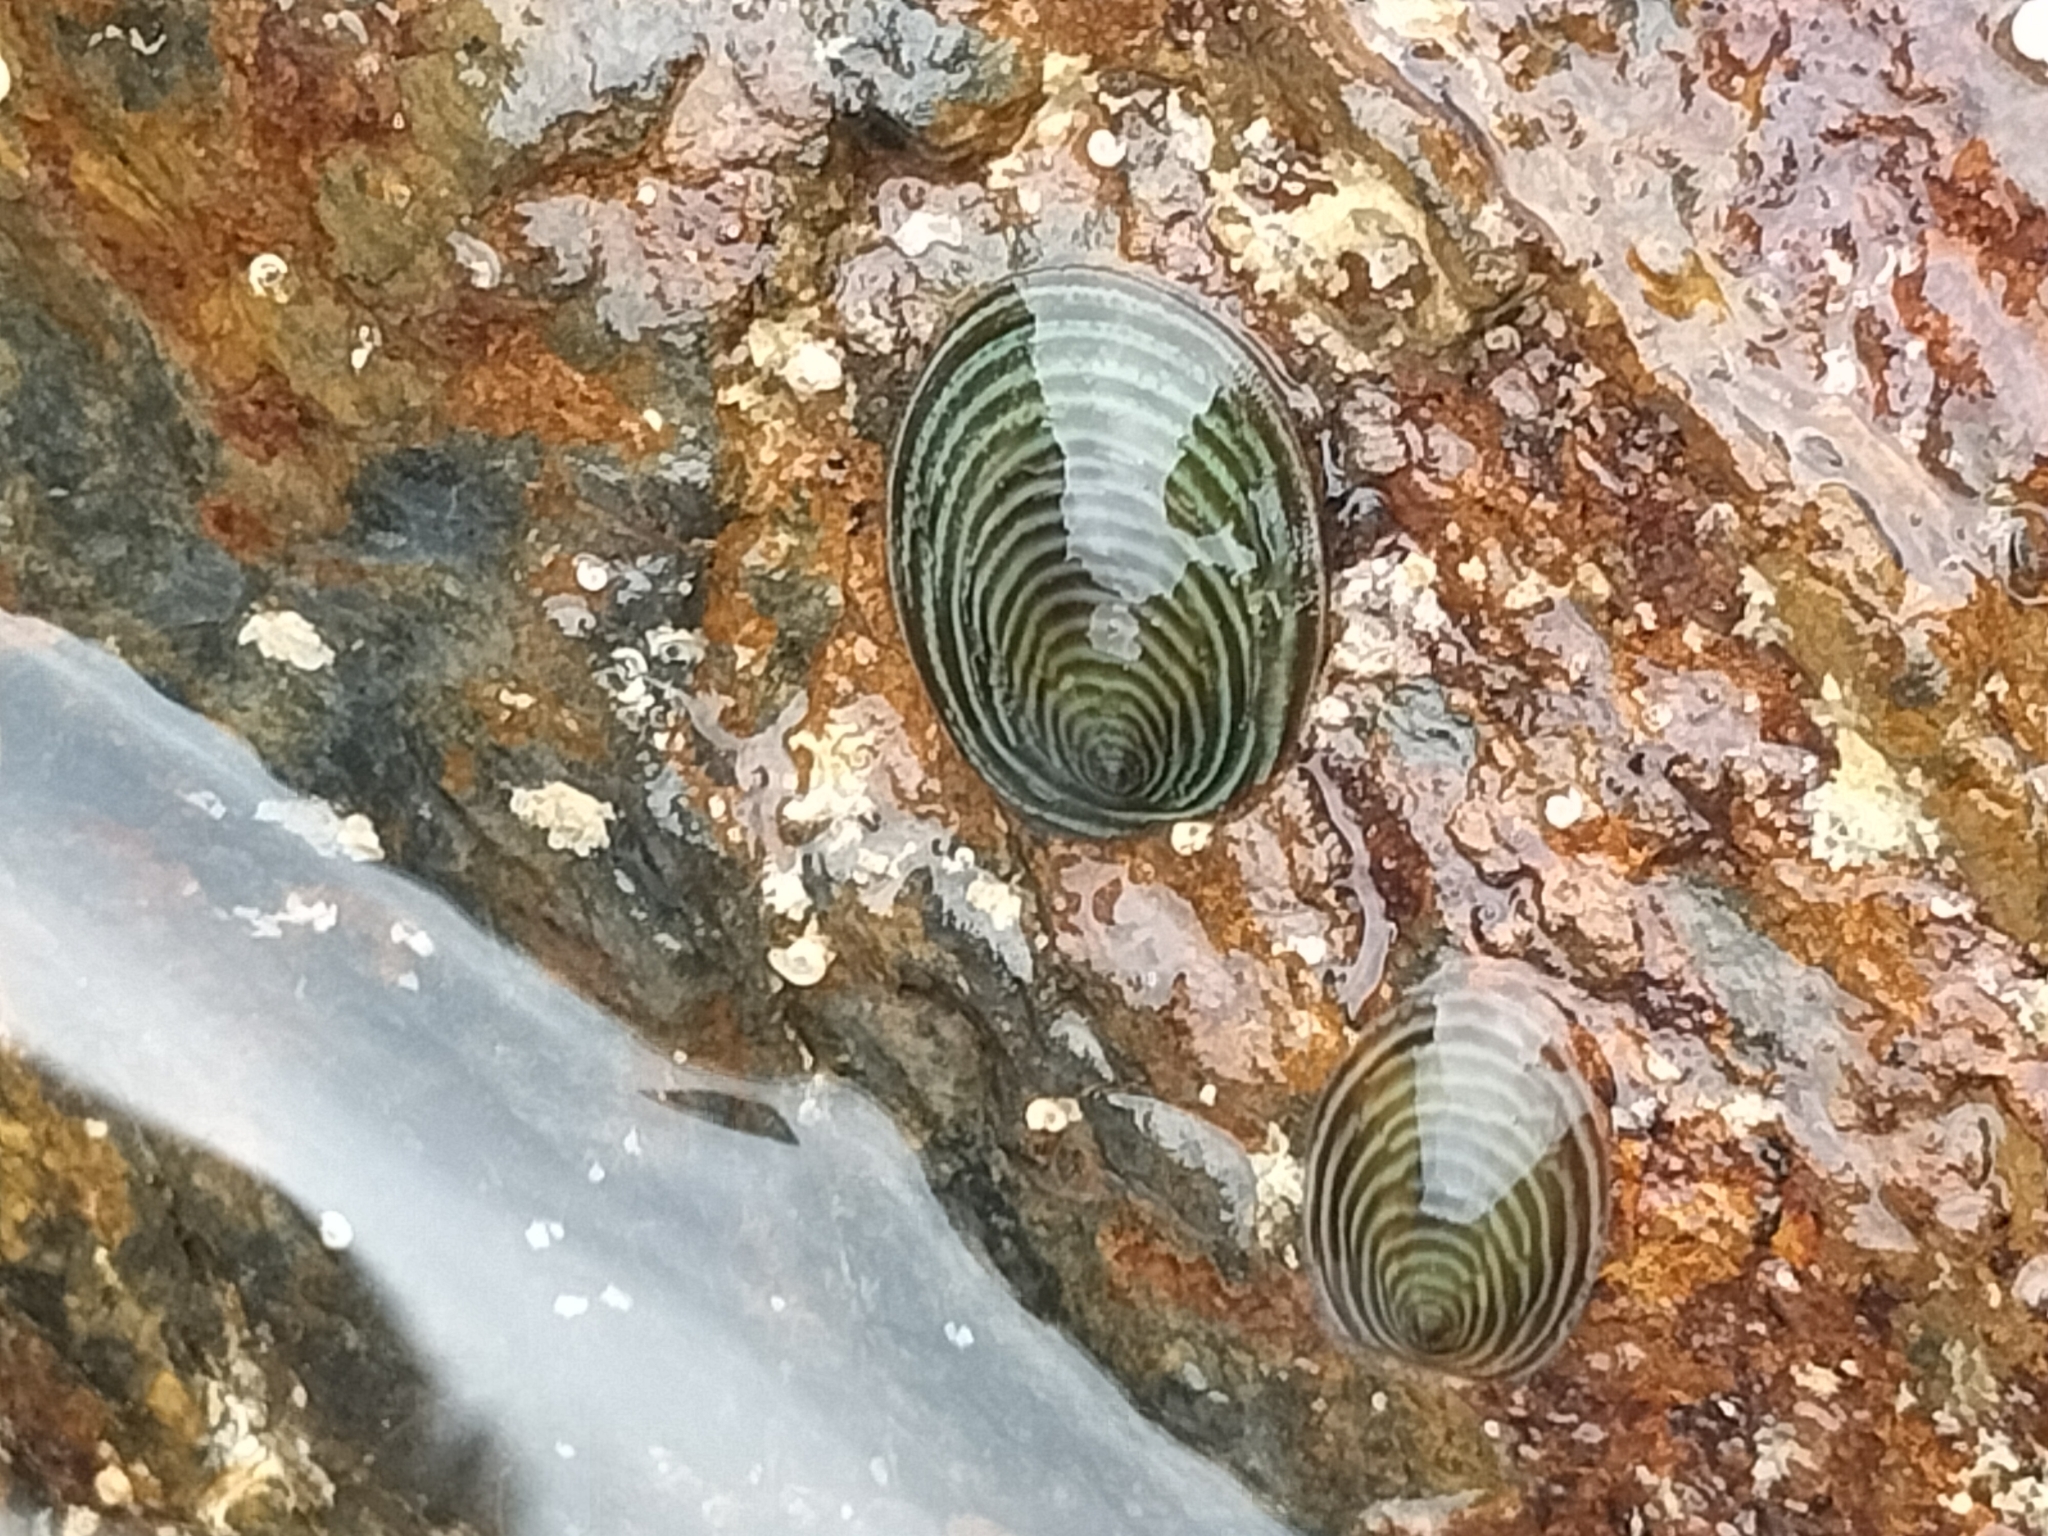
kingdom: Animalia
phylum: Mollusca
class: Gastropoda
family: Lottiidae
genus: Atalacmea
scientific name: Atalacmea fragilis
